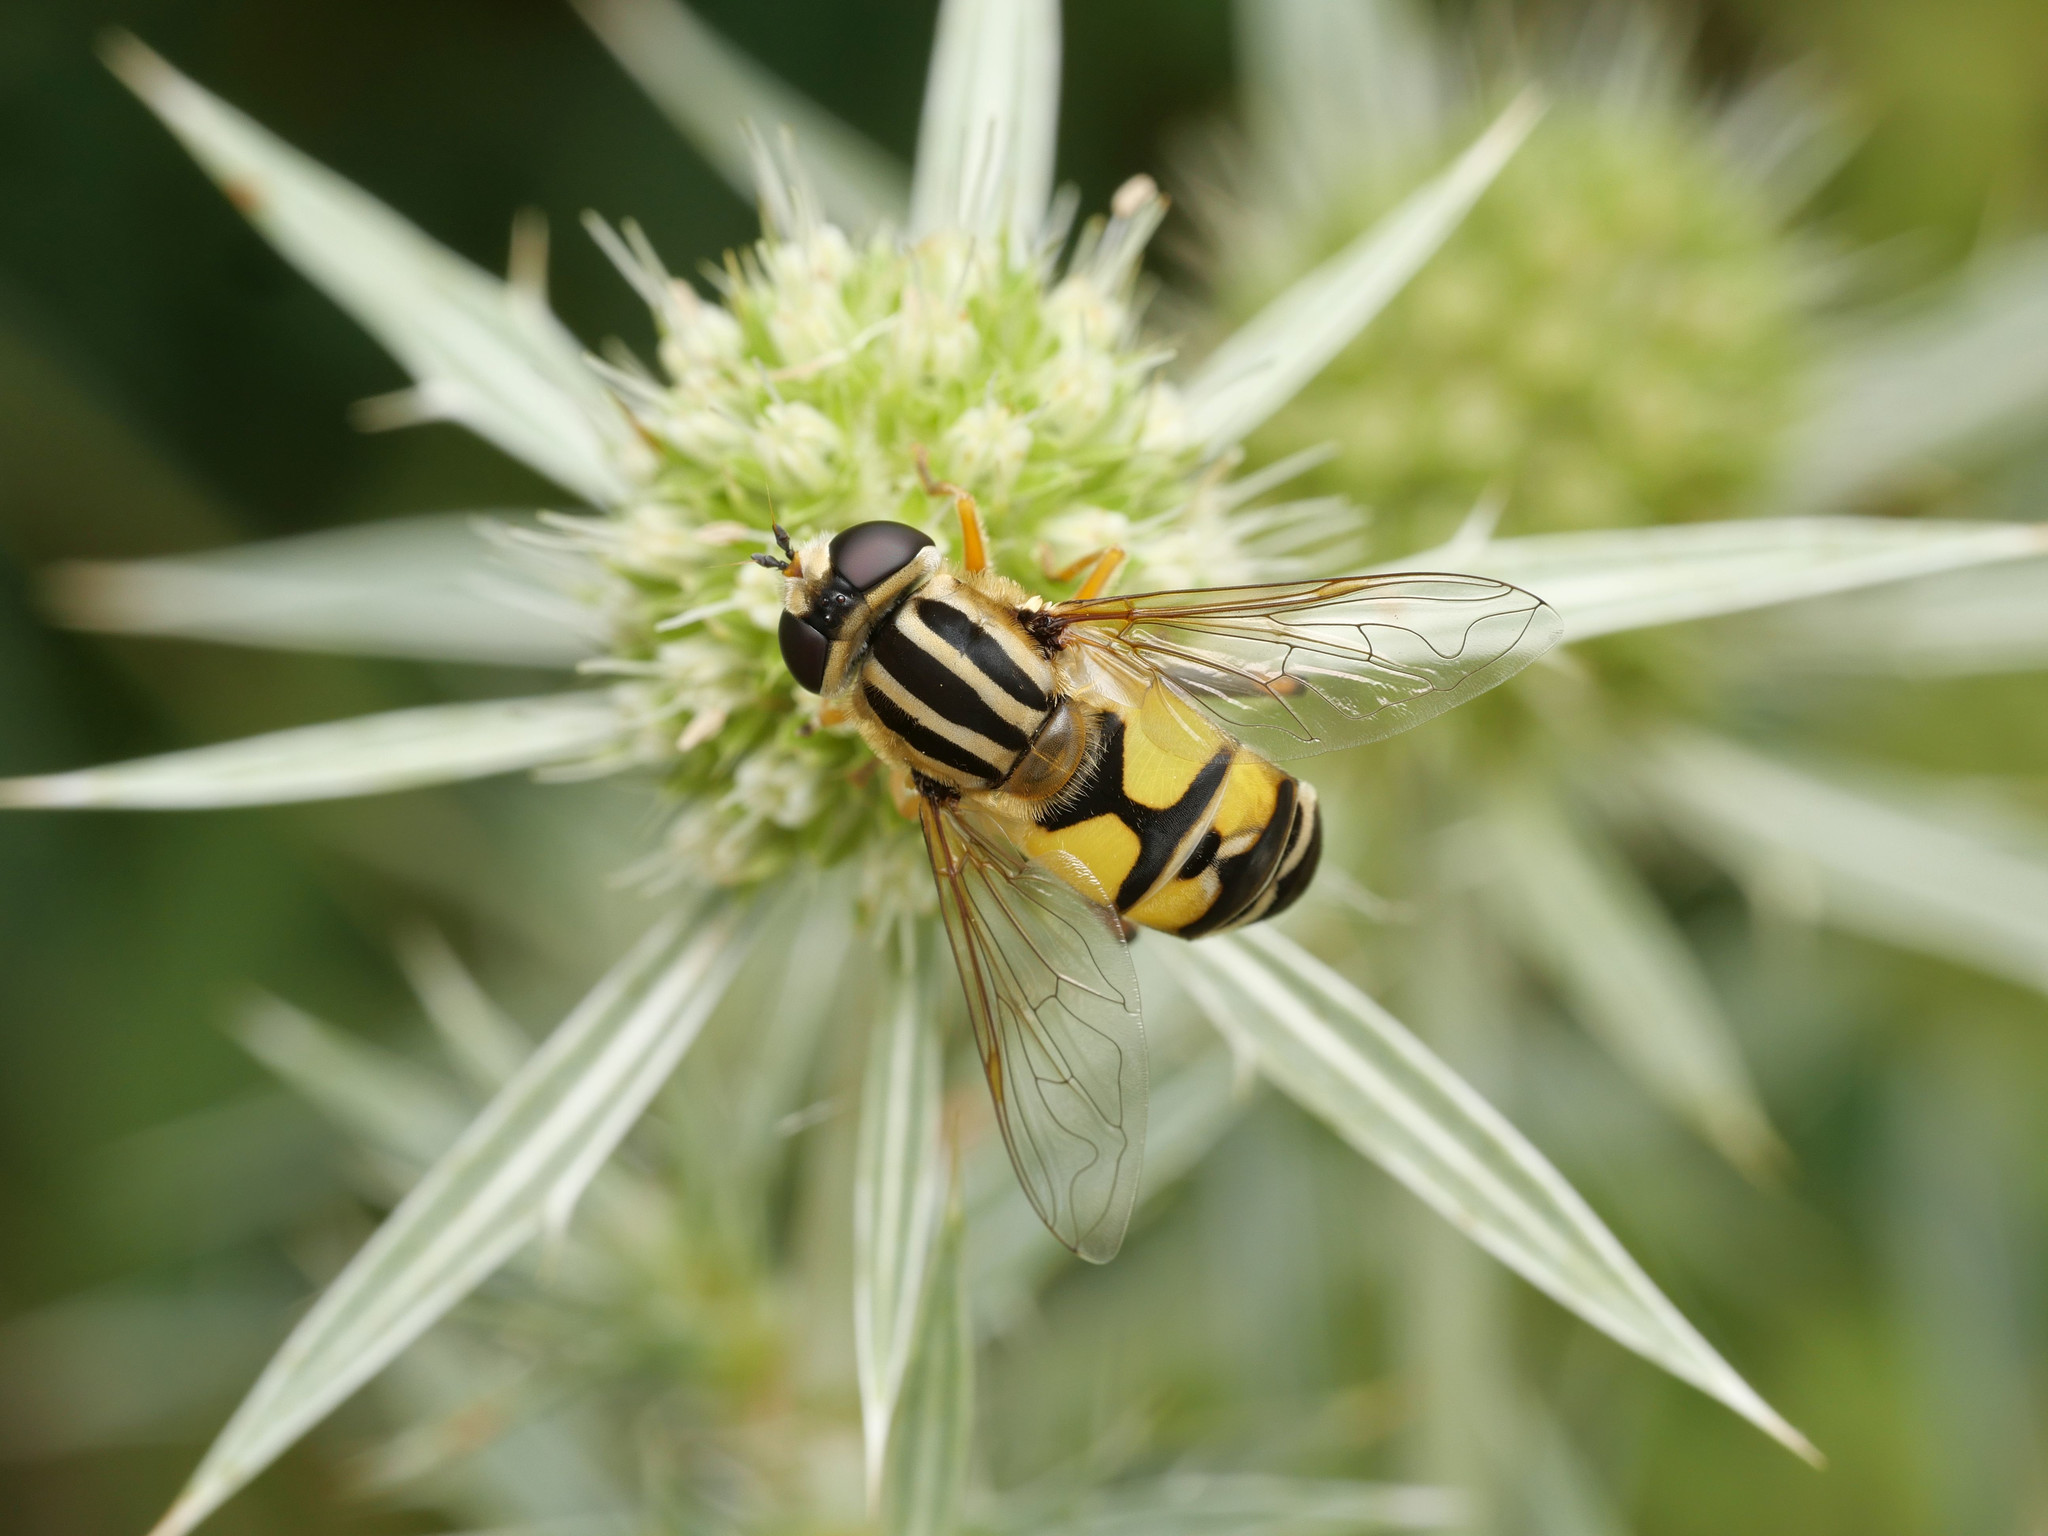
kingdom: Animalia
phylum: Arthropoda
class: Insecta
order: Diptera
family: Syrphidae
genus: Helophilus
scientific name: Helophilus trivittatus
